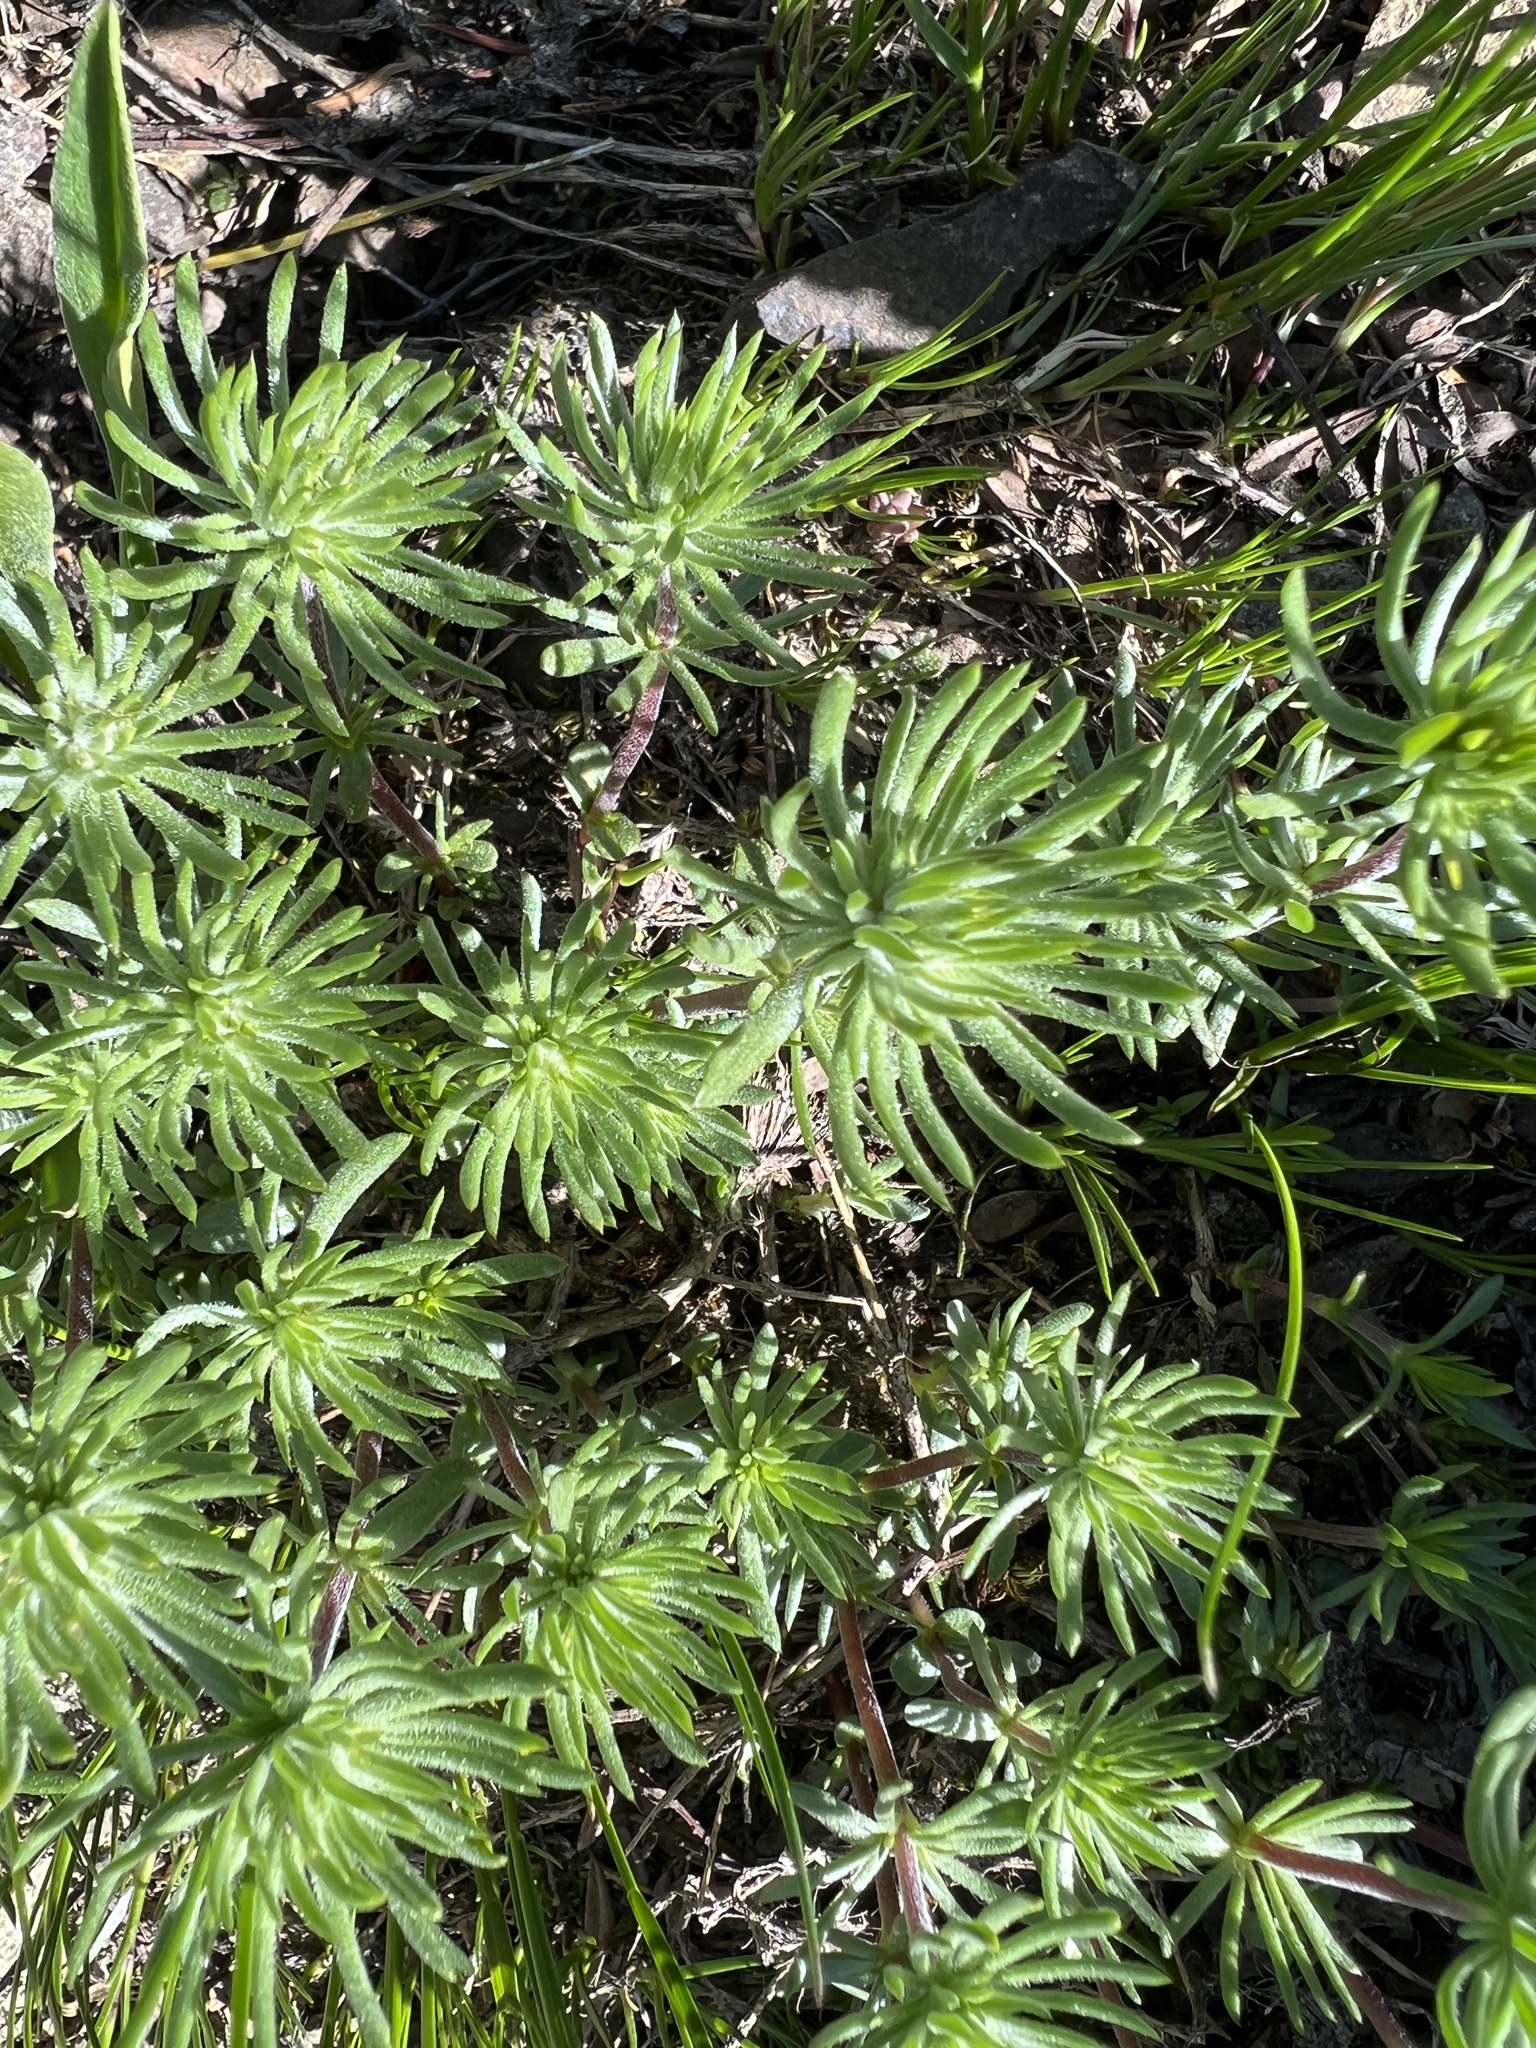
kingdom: Plantae
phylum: Tracheophyta
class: Magnoliopsida
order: Ericales
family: Polemoniaceae
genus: Leptosiphon
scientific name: Leptosiphon nuttallii
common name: Nuttall's linanthus
